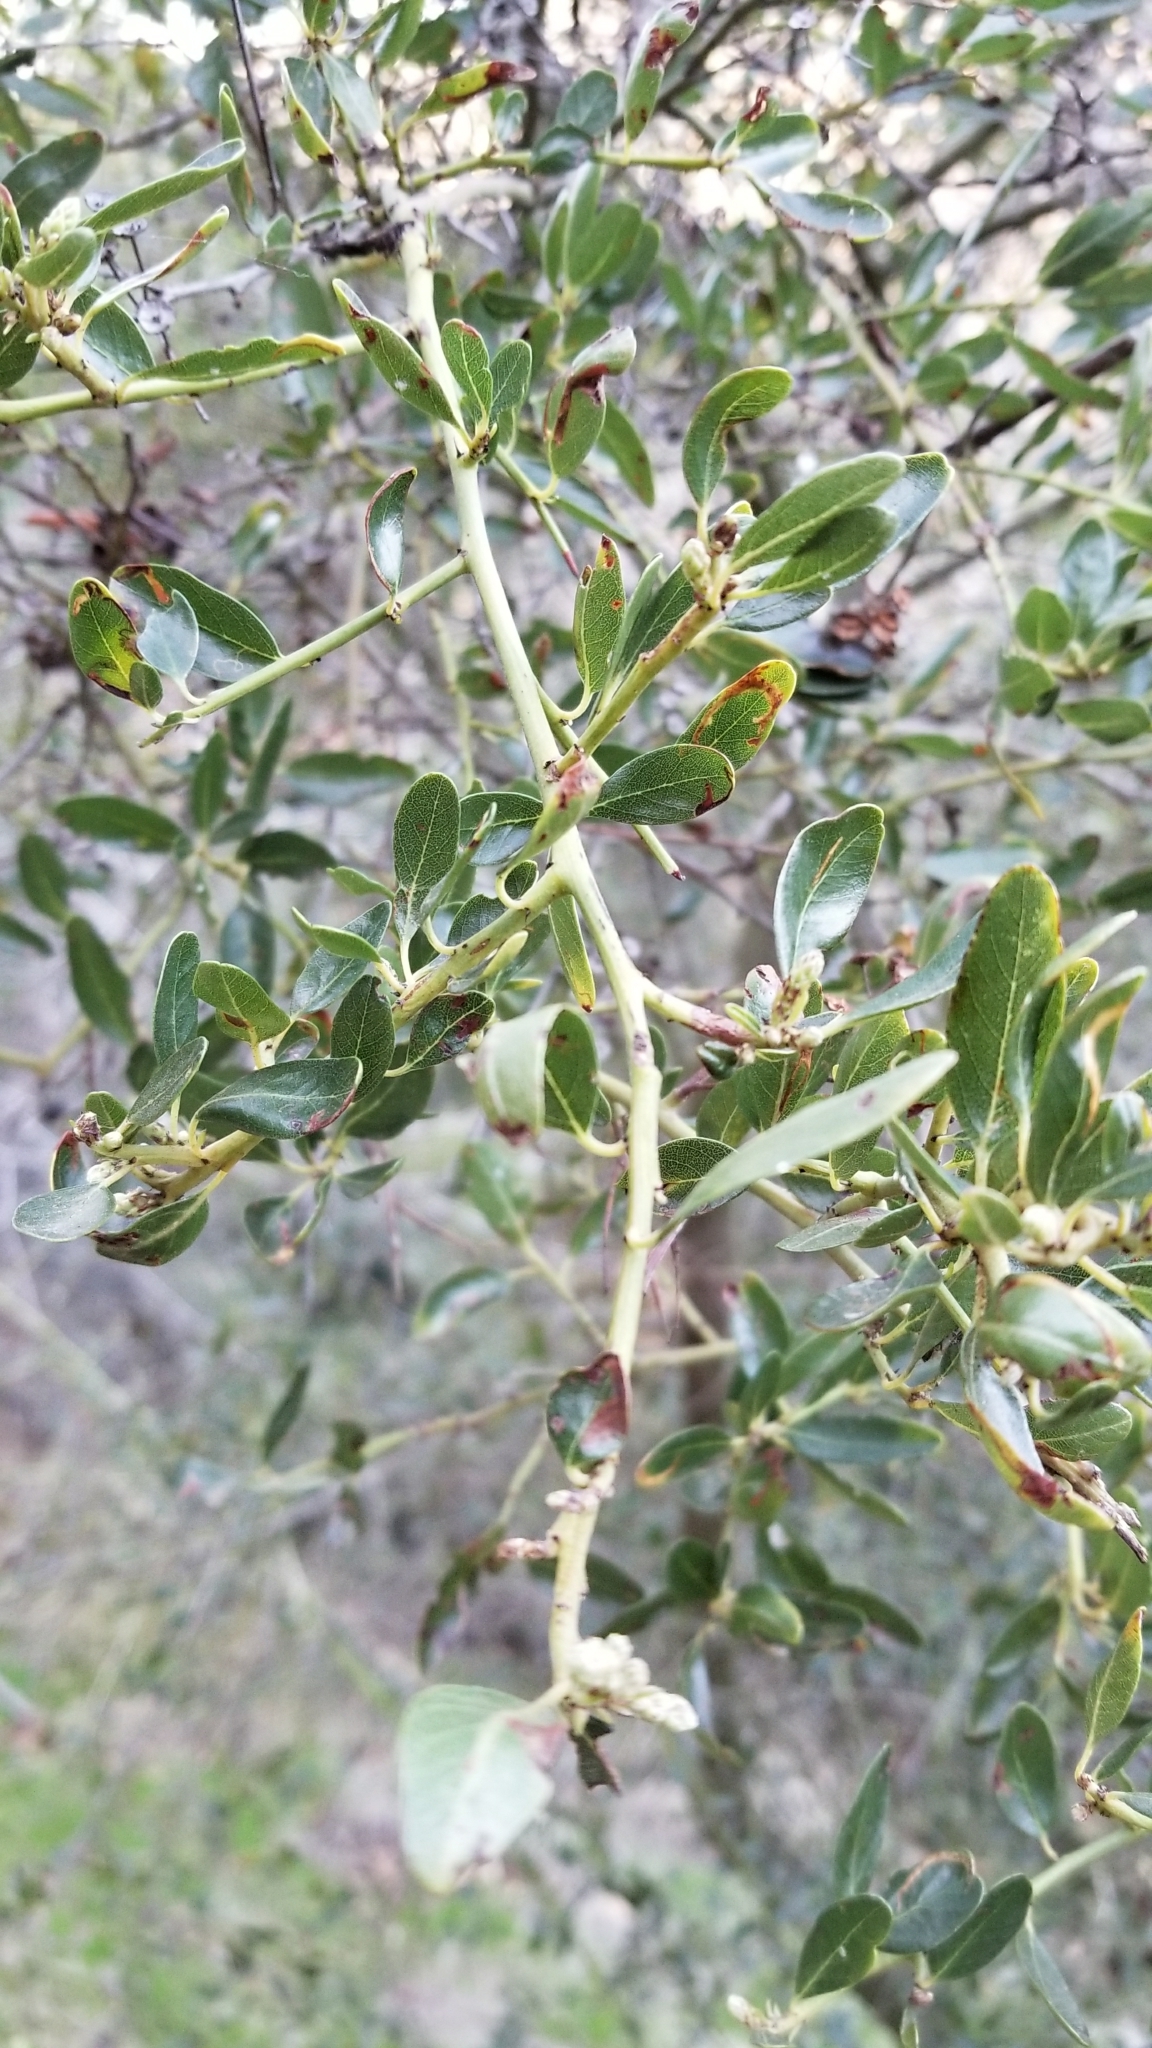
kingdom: Plantae
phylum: Tracheophyta
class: Magnoliopsida
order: Rosales
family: Rhamnaceae
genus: Ceanothus
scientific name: Ceanothus spinosus
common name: Greenbark whitethorn
